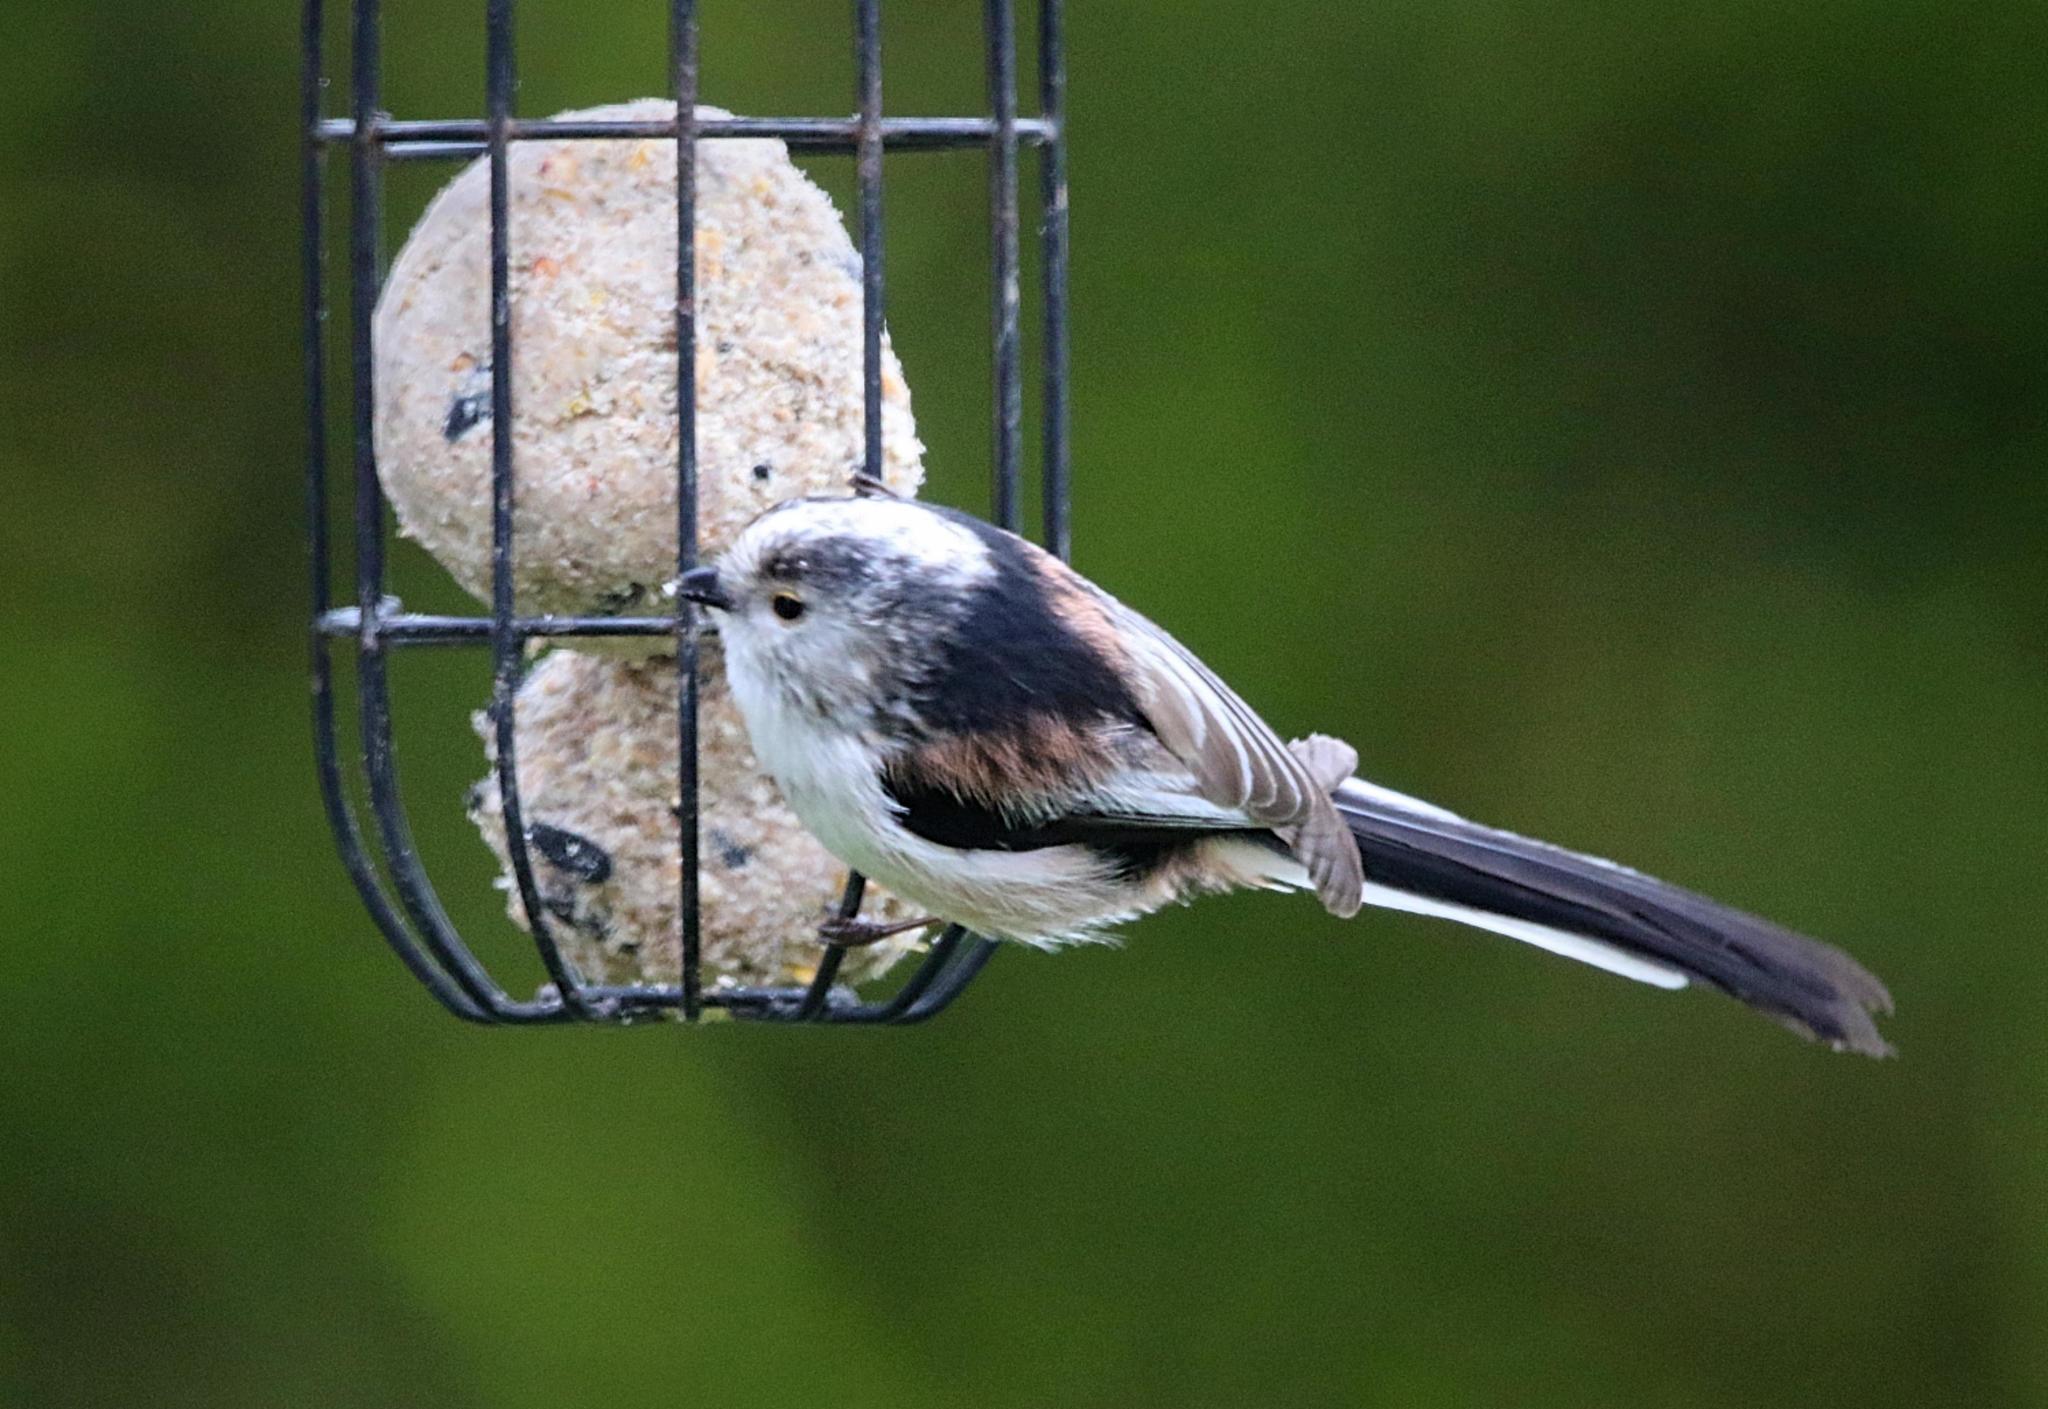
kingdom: Animalia
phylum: Chordata
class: Aves
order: Passeriformes
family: Aegithalidae
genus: Aegithalos
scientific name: Aegithalos caudatus
